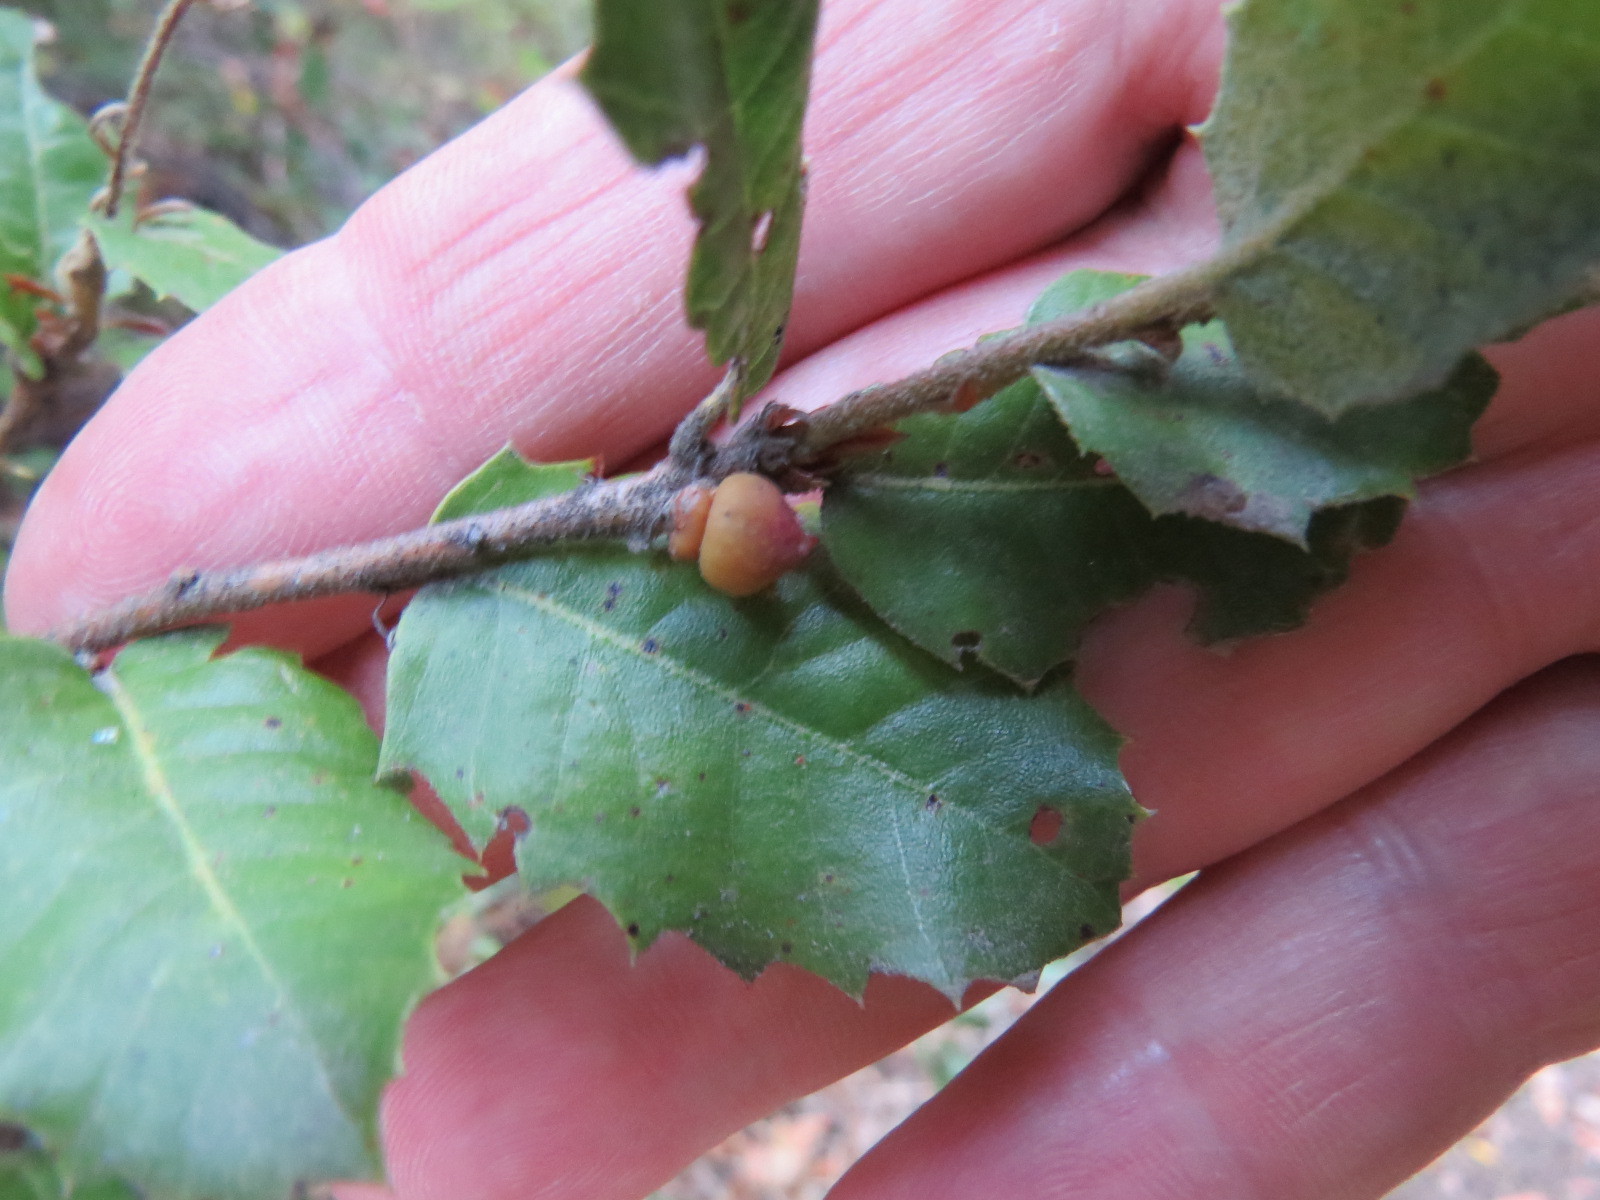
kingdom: Animalia
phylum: Arthropoda
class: Insecta
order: Hymenoptera
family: Cynipidae
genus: Heteroecus
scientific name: Heteroecus
